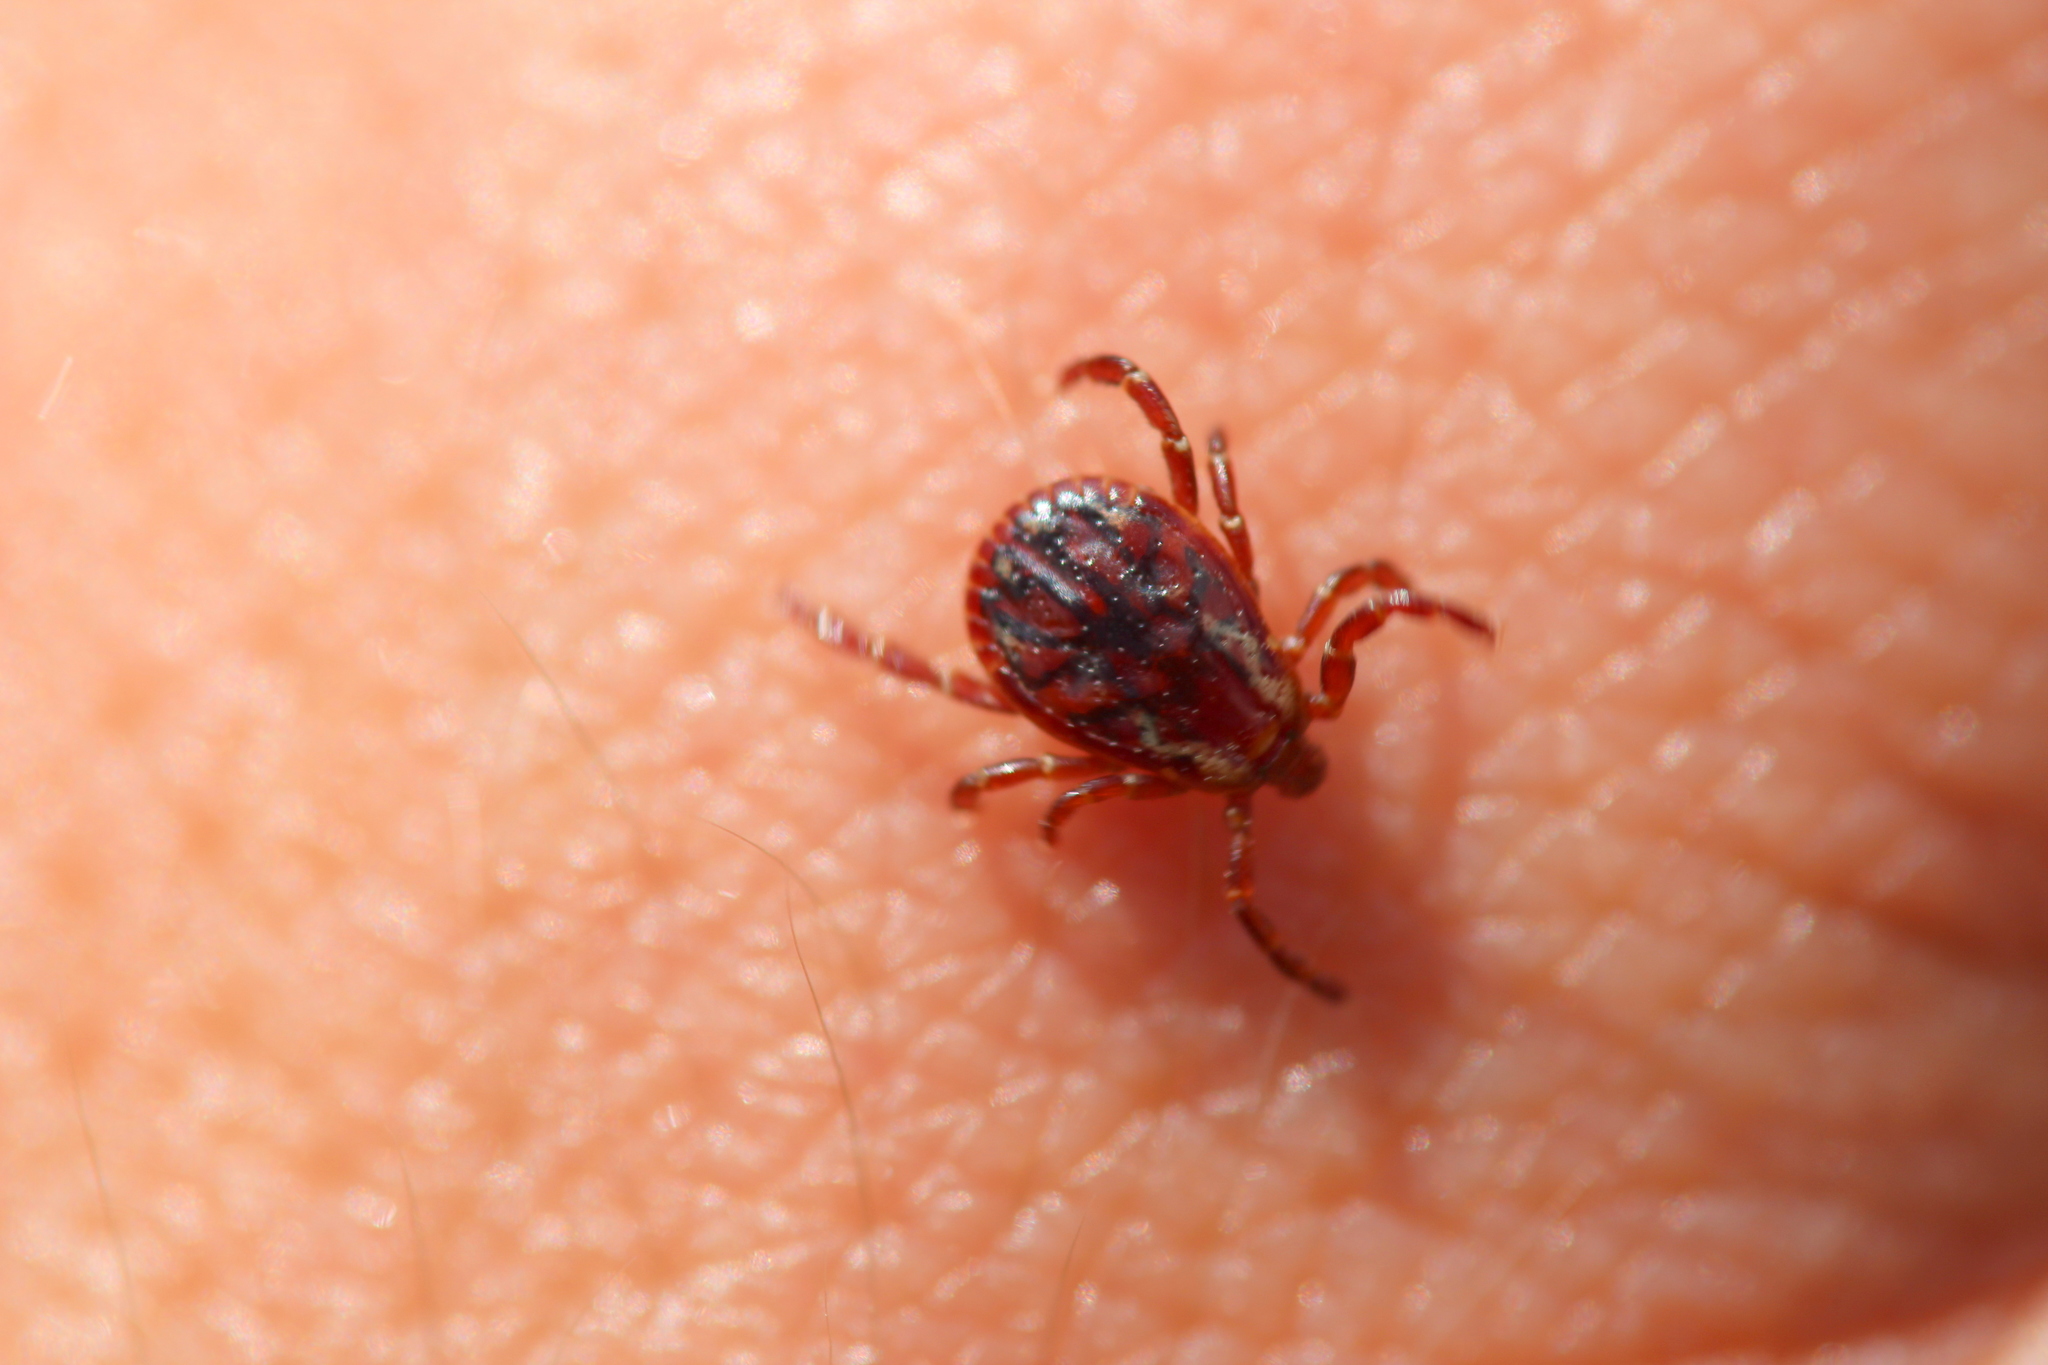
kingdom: Animalia
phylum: Arthropoda
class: Arachnida
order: Ixodida
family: Ixodidae
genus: Dermacentor
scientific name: Dermacentor variabilis
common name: American dog tick
